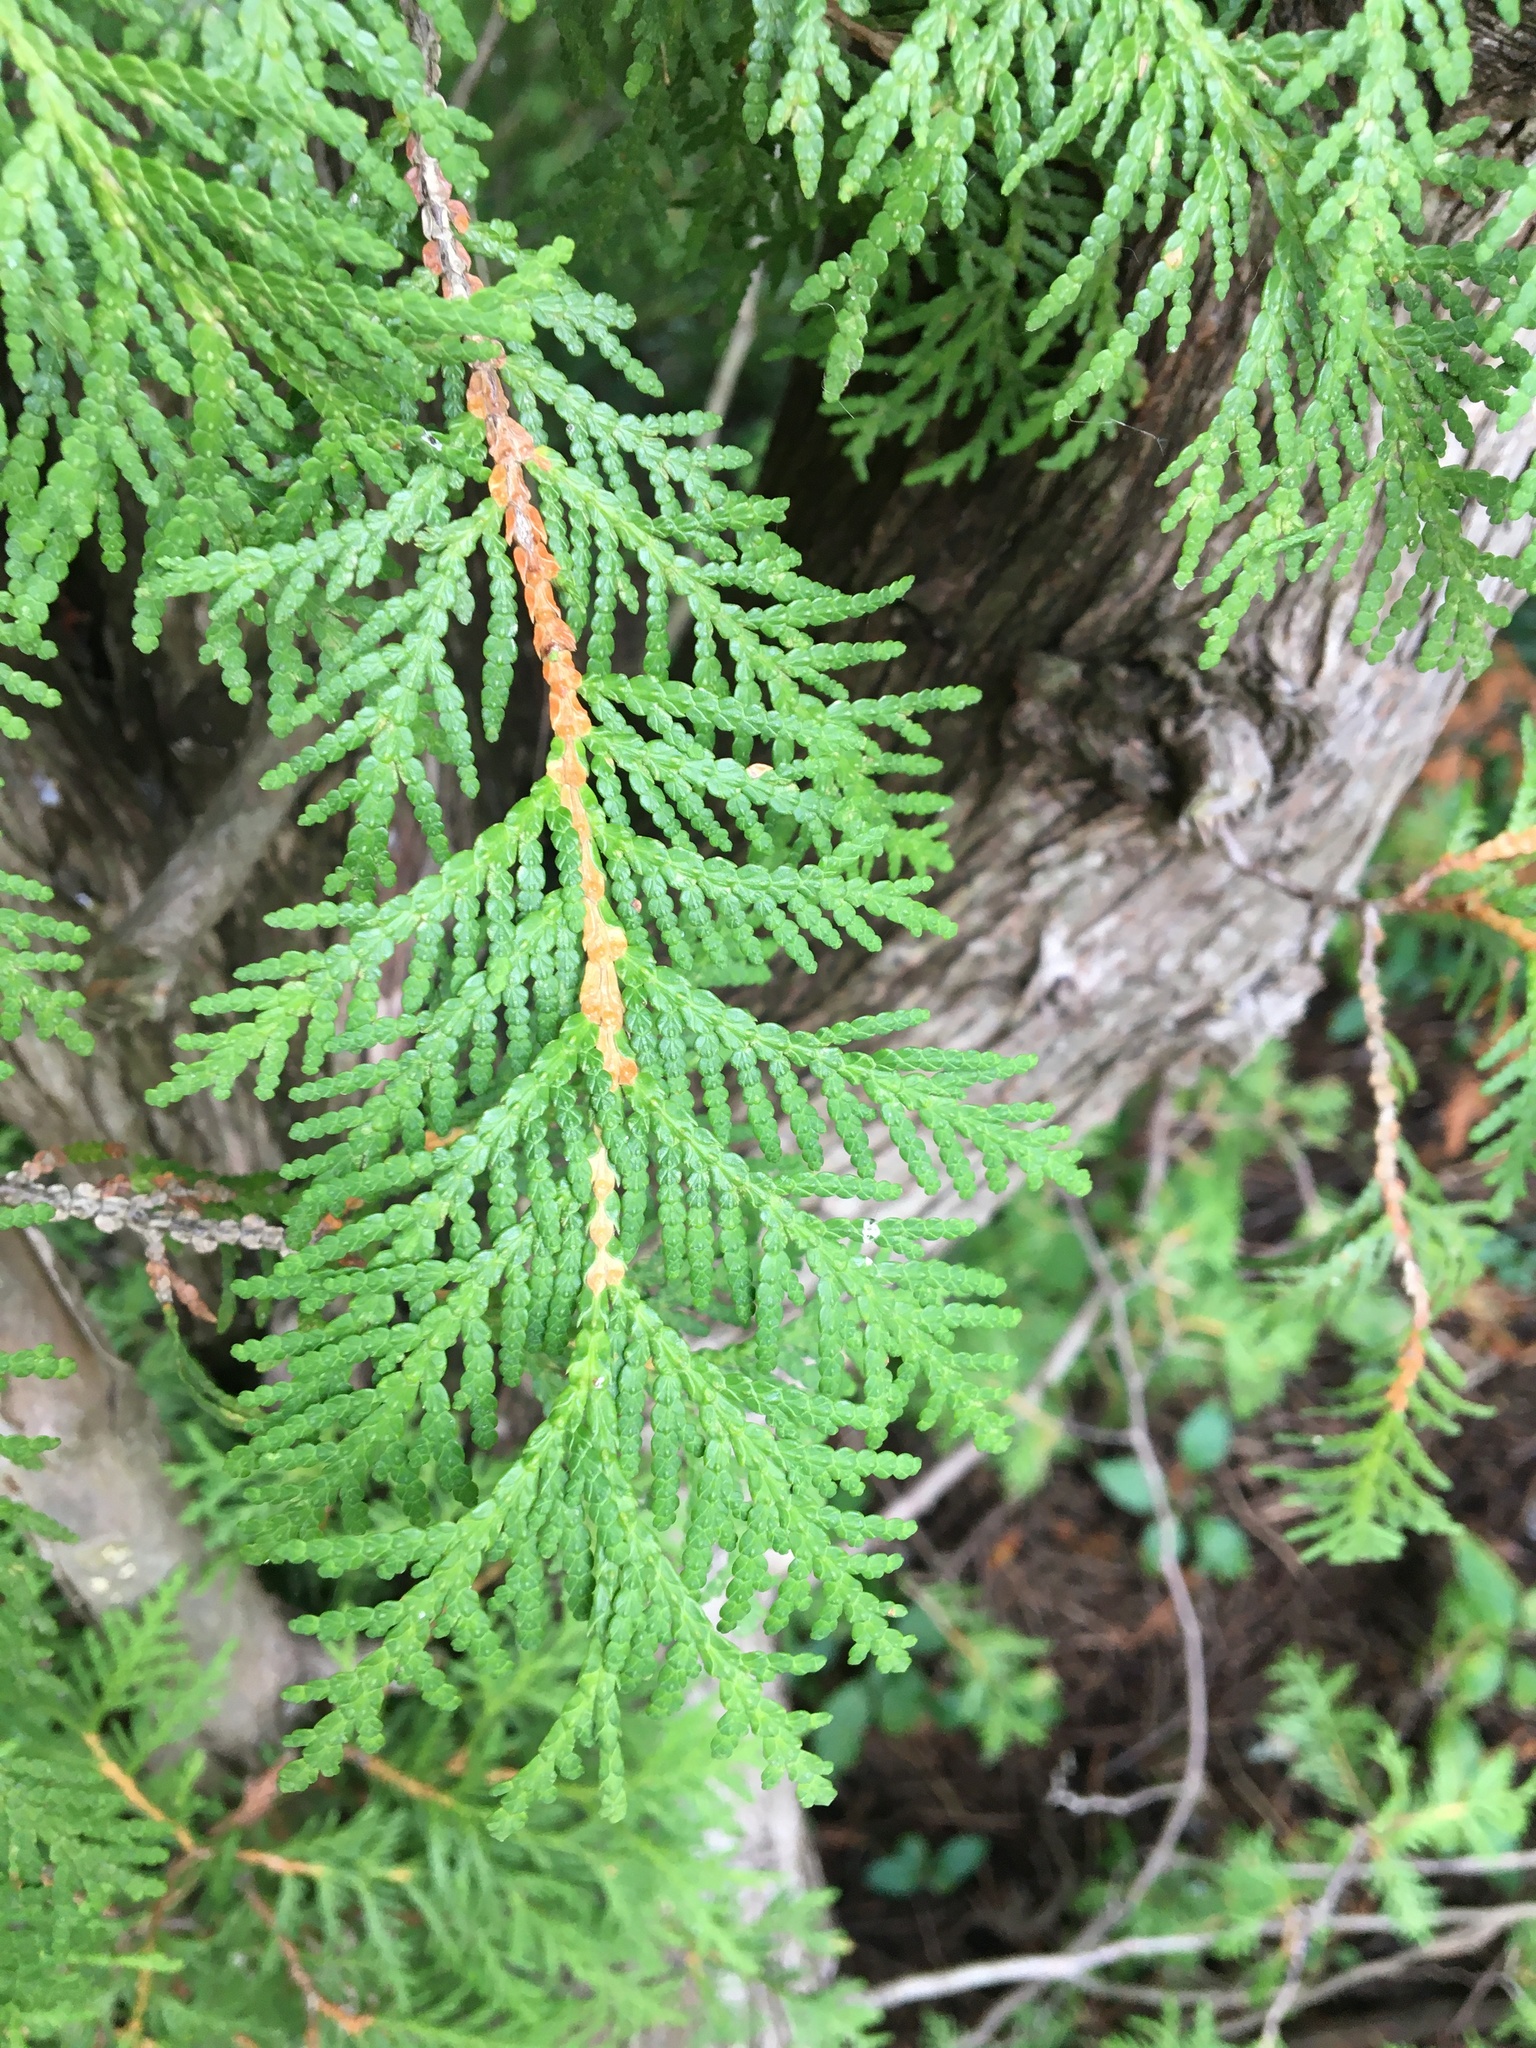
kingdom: Plantae
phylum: Tracheophyta
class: Pinopsida
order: Pinales
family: Cupressaceae
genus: Thuja
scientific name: Thuja occidentalis
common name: Northern white-cedar
